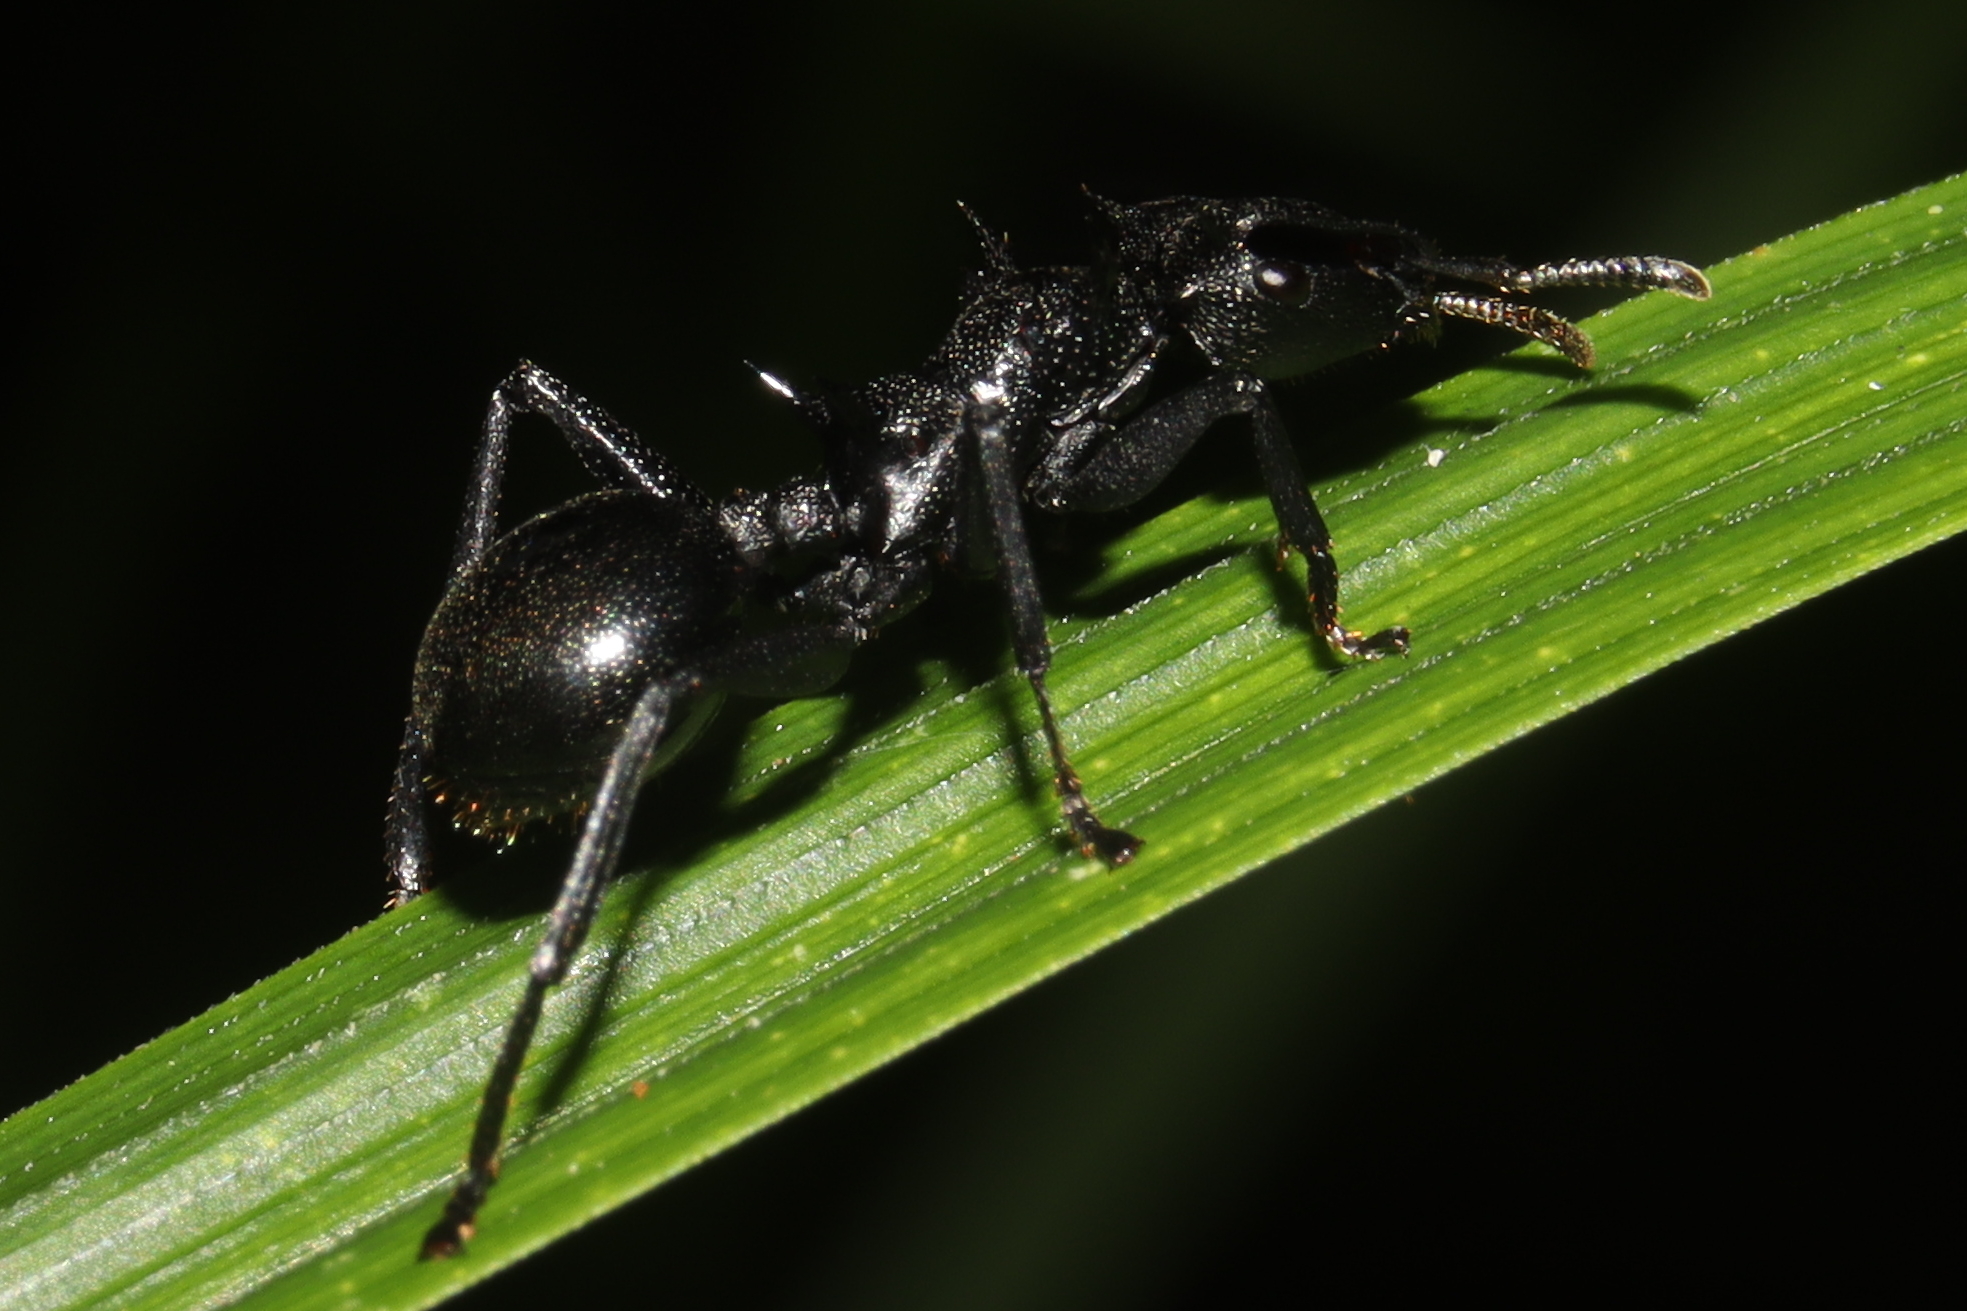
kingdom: Animalia
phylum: Arthropoda
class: Insecta
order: Hymenoptera
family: Formicidae
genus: Cephalotes
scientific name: Cephalotes atratus
